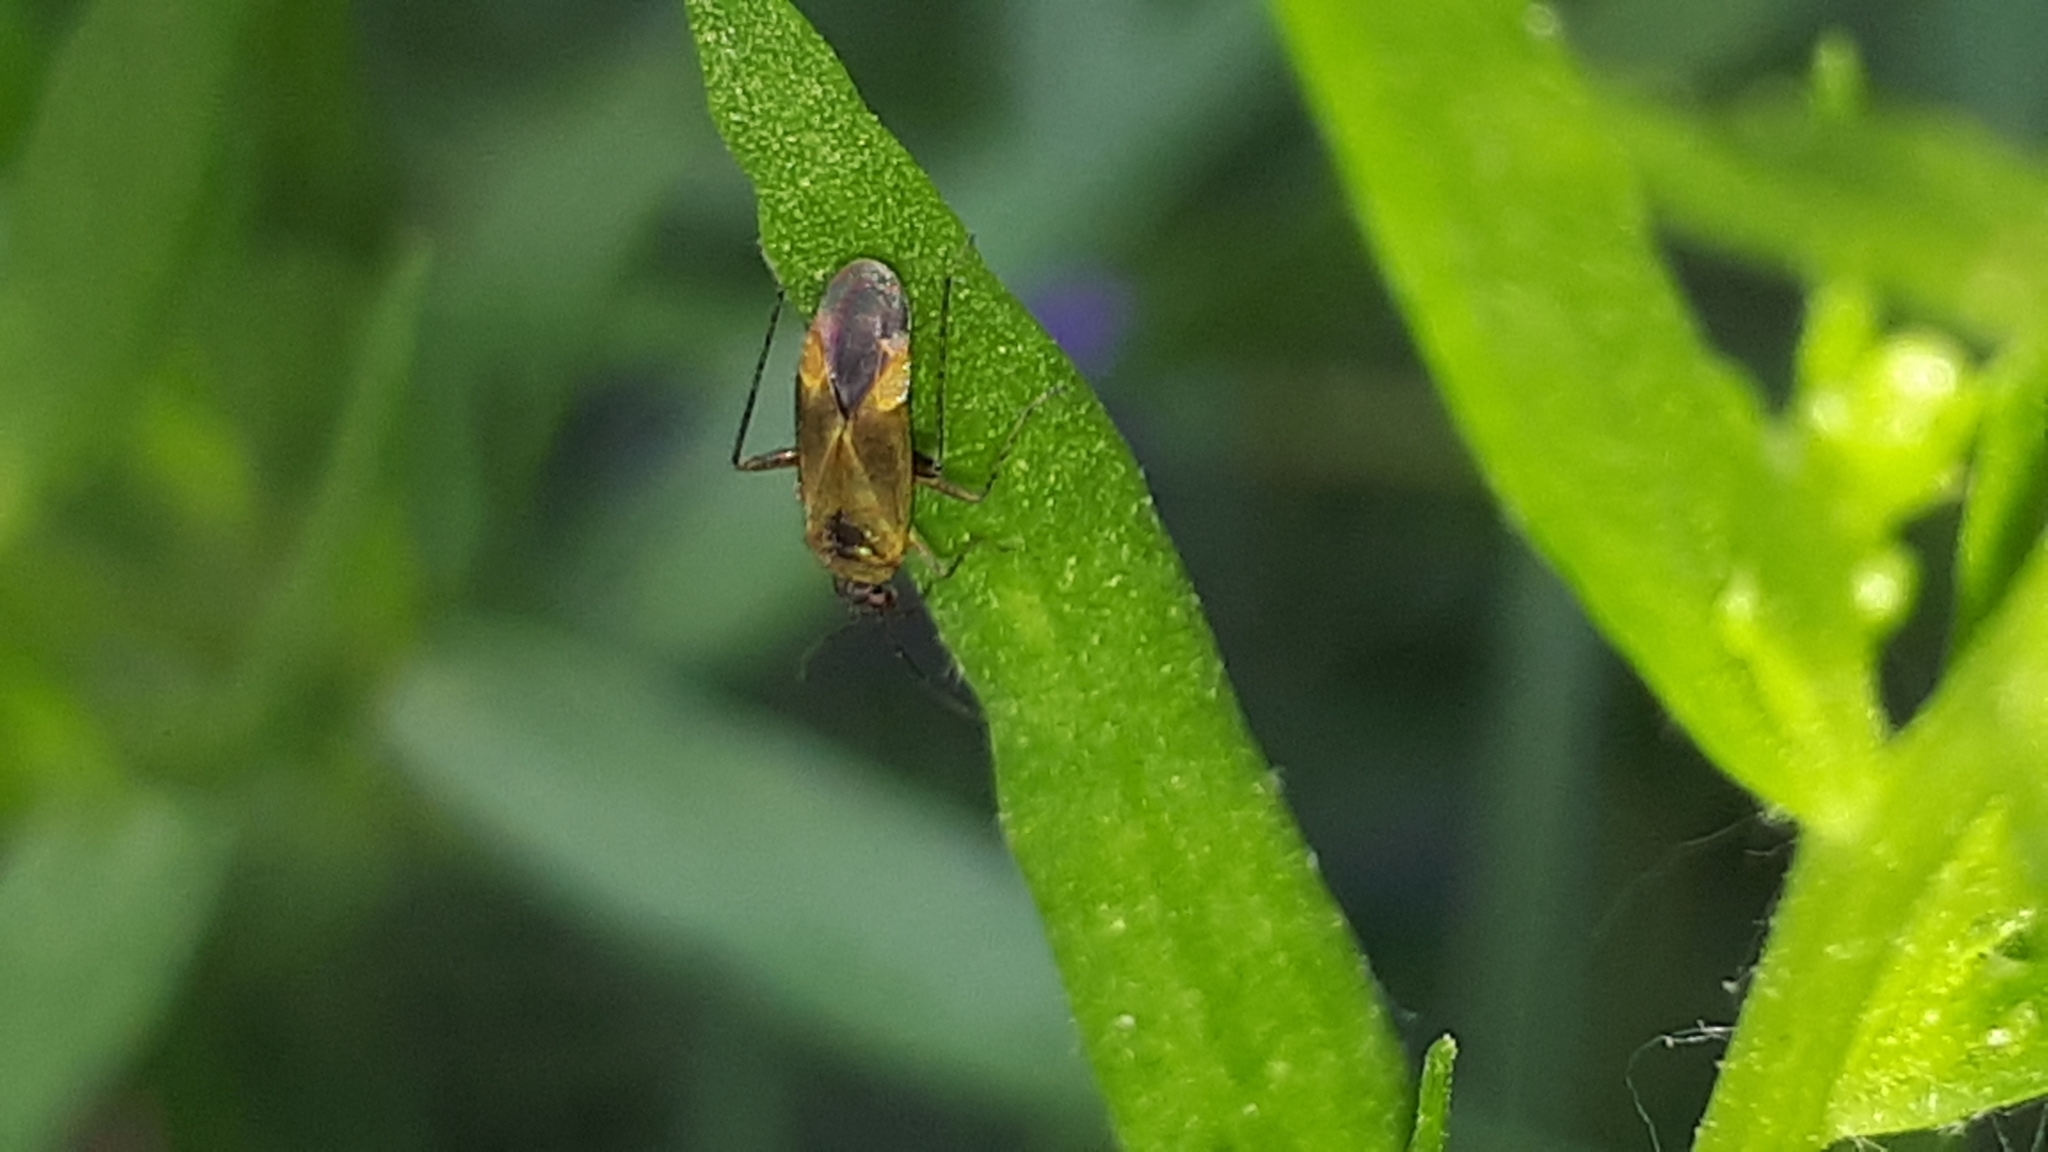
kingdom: Animalia
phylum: Arthropoda
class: Insecta
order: Hemiptera
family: Miridae
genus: Plagiognathus
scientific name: Plagiognathus arbustorum
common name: Plant bug
